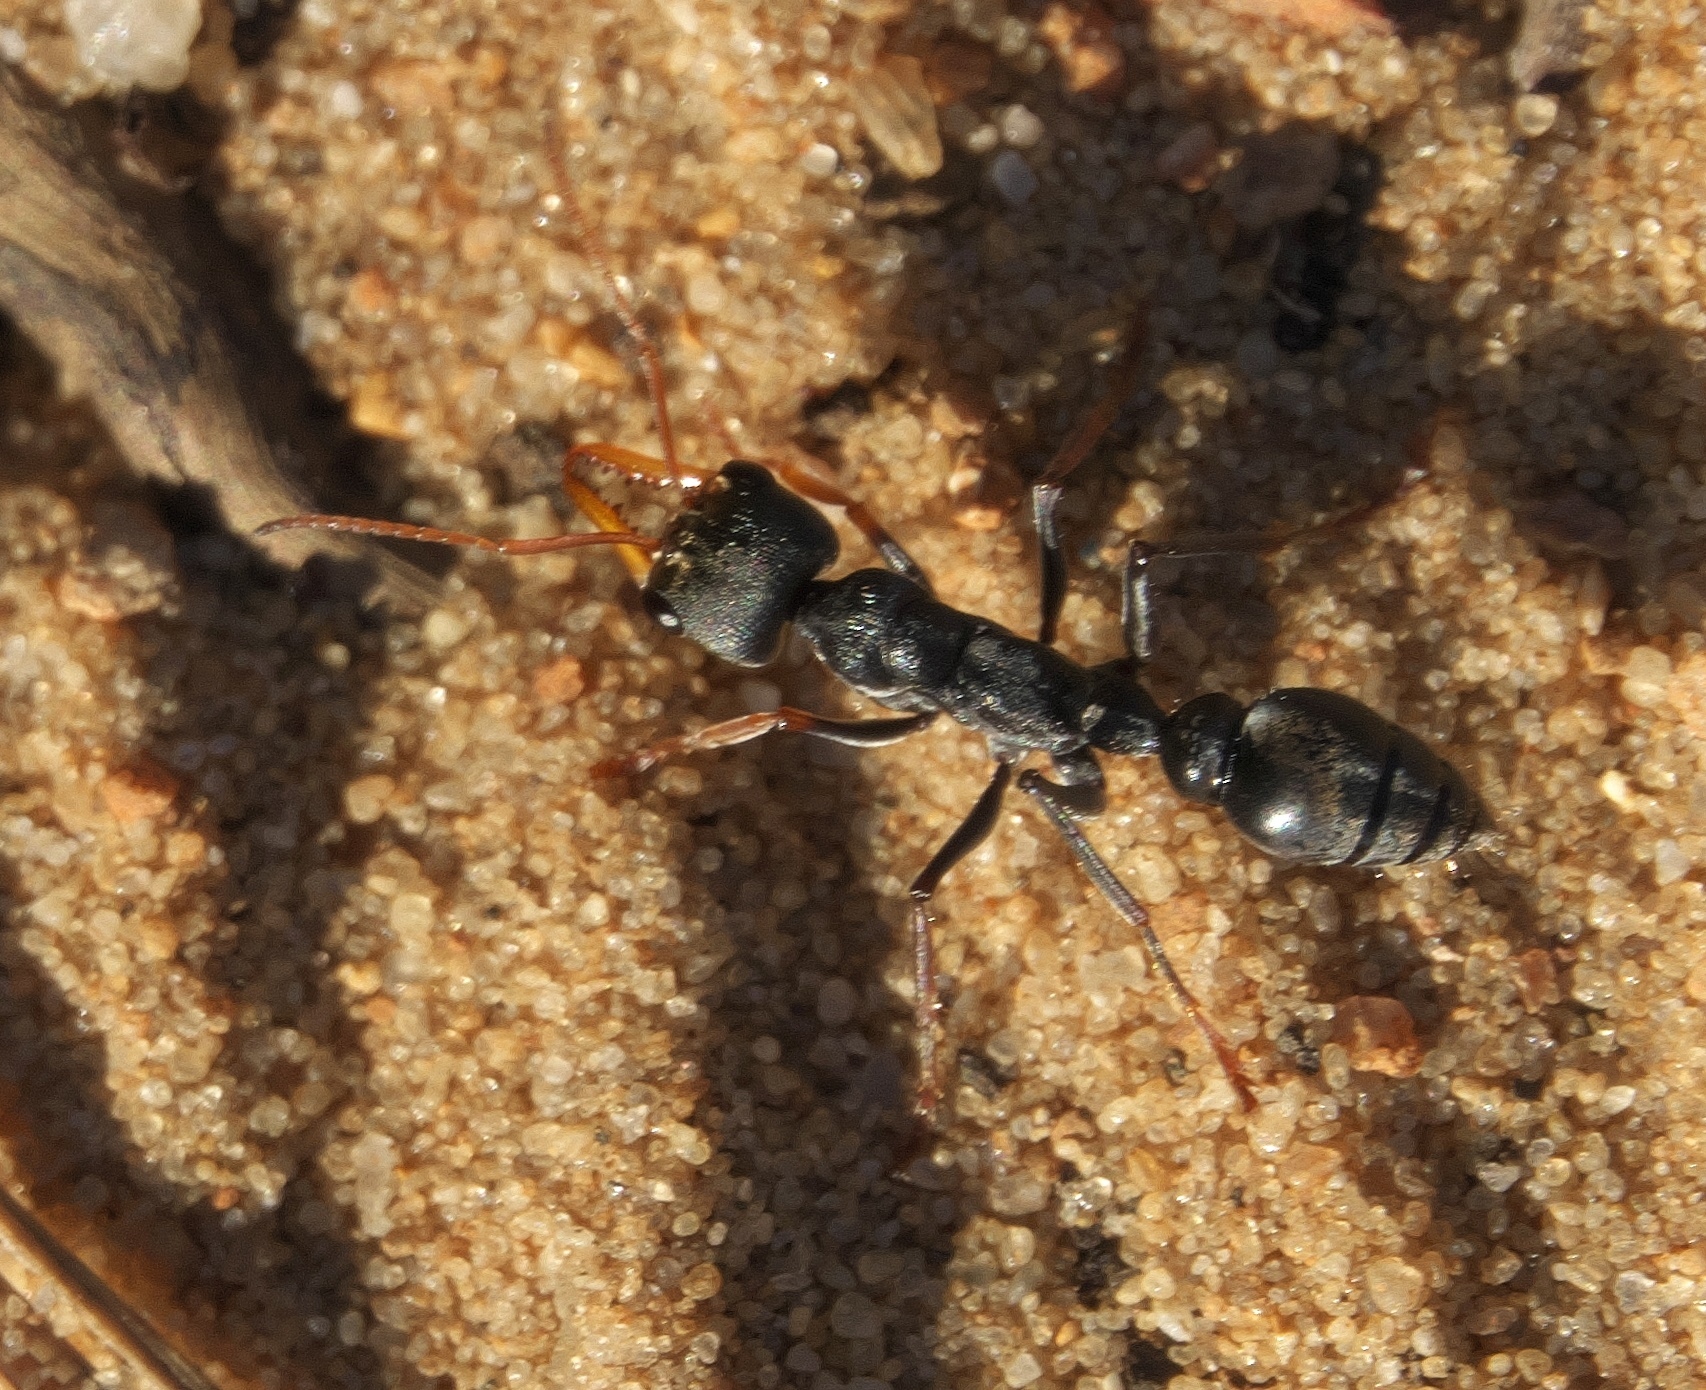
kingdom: Animalia
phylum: Arthropoda
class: Insecta
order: Hymenoptera
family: Formicidae
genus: Myrmecia
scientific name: Myrmecia imaii
